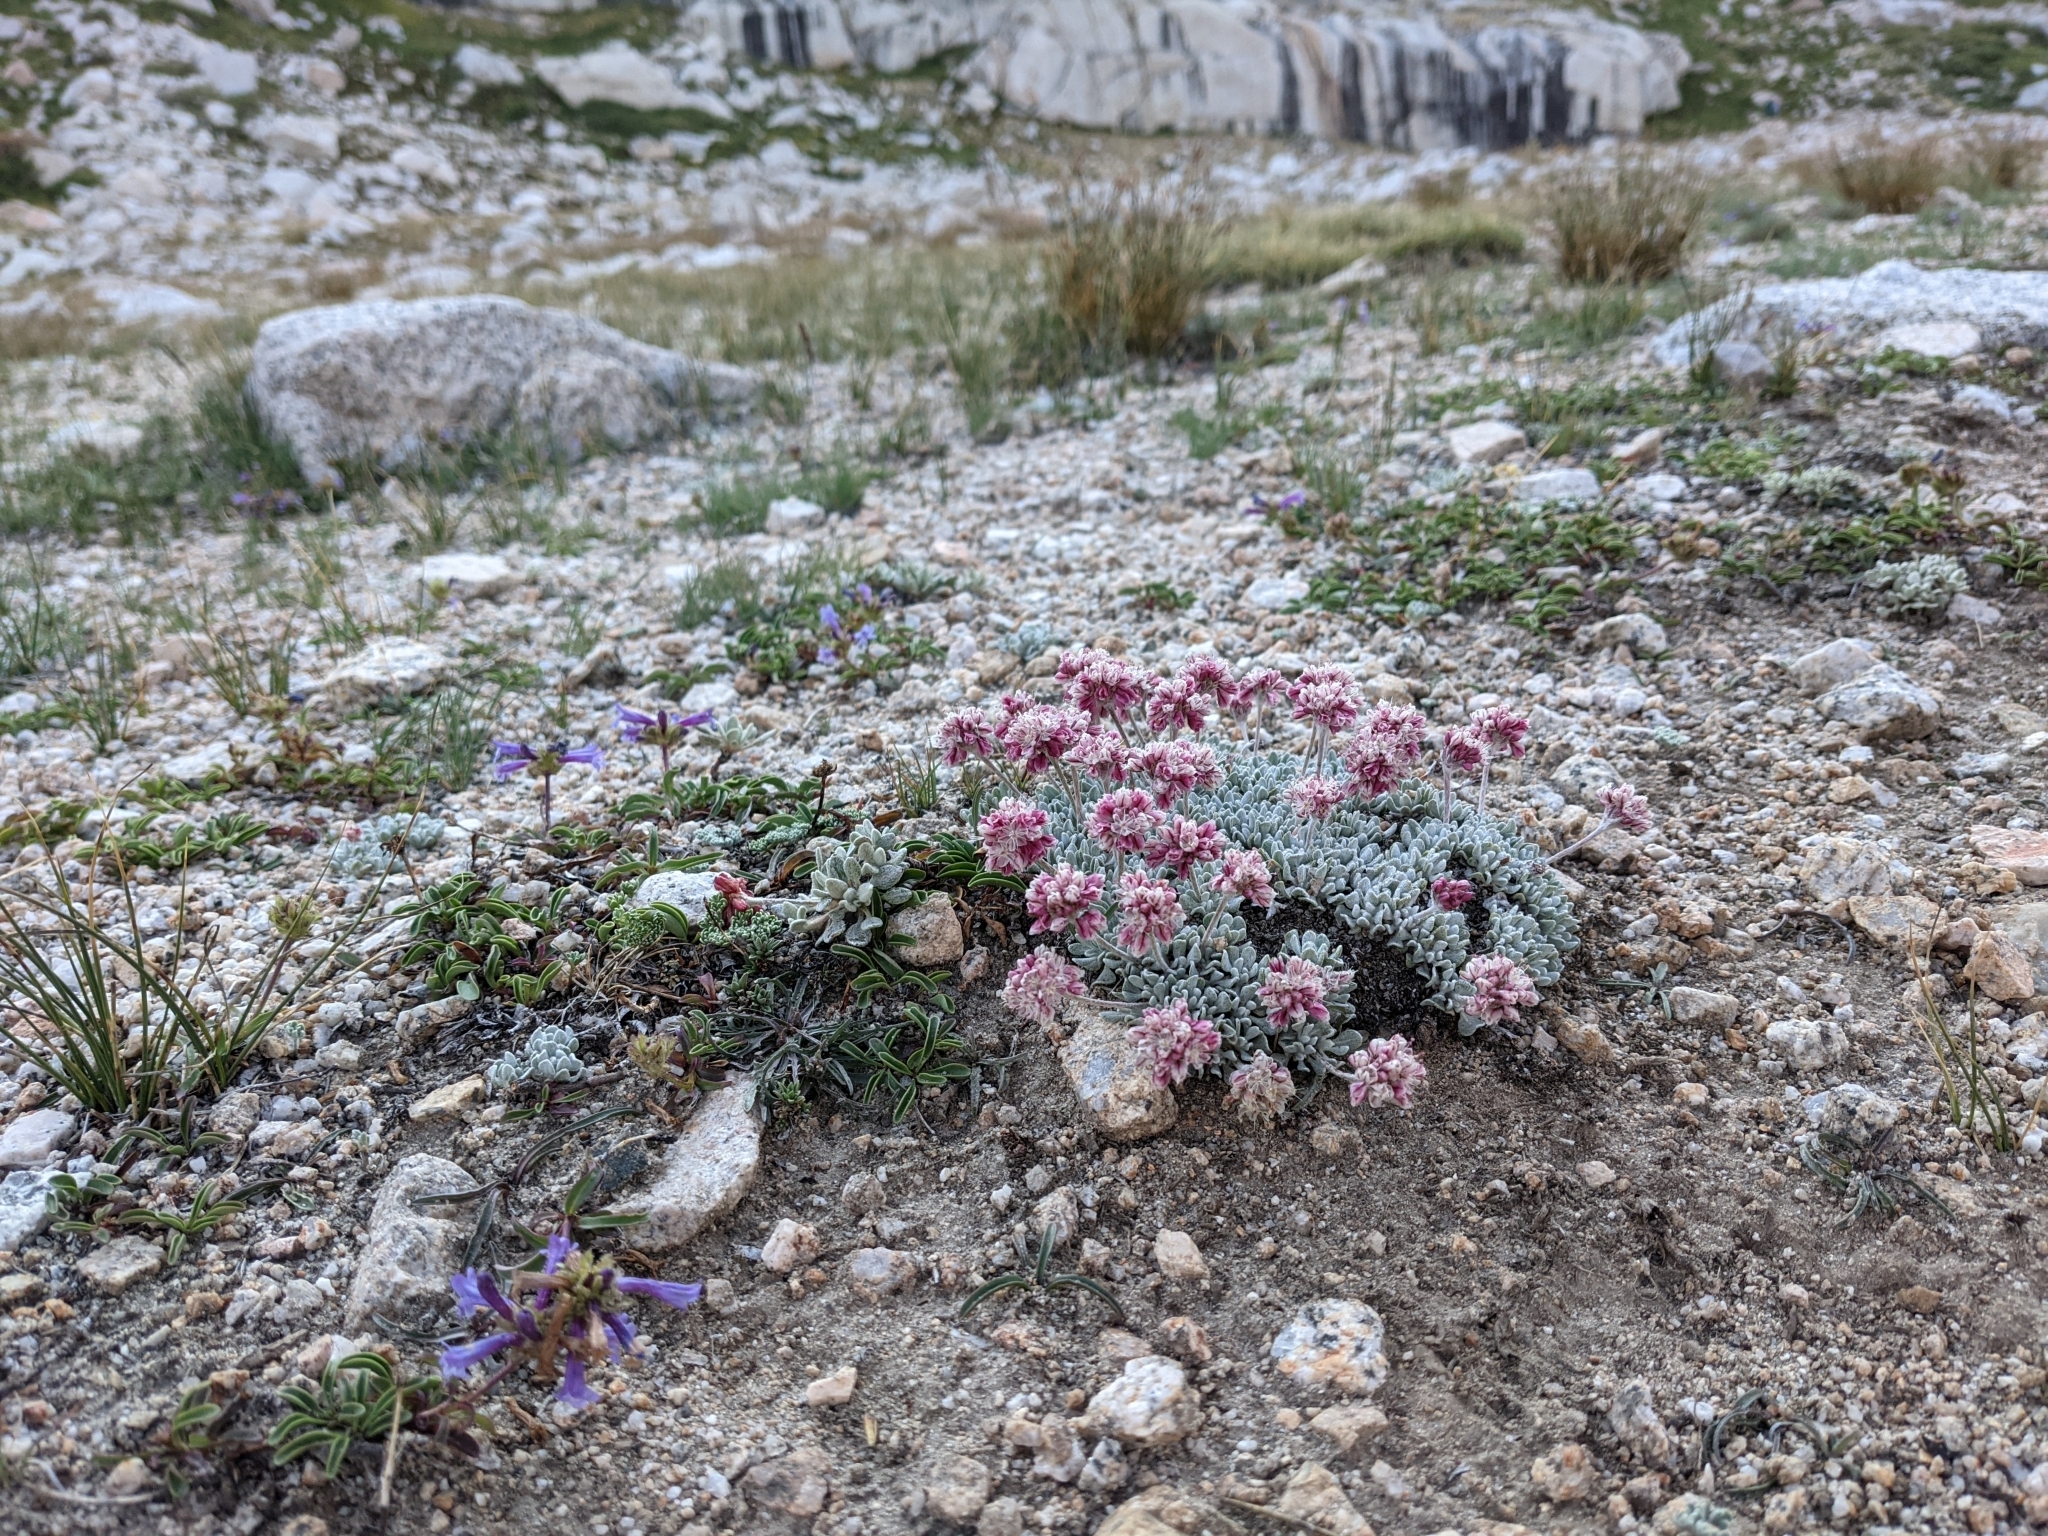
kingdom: Plantae
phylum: Tracheophyta
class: Magnoliopsida
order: Caryophyllales
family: Polygonaceae
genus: Eriogonum
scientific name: Eriogonum ovalifolium
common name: Cushion buckwheat
